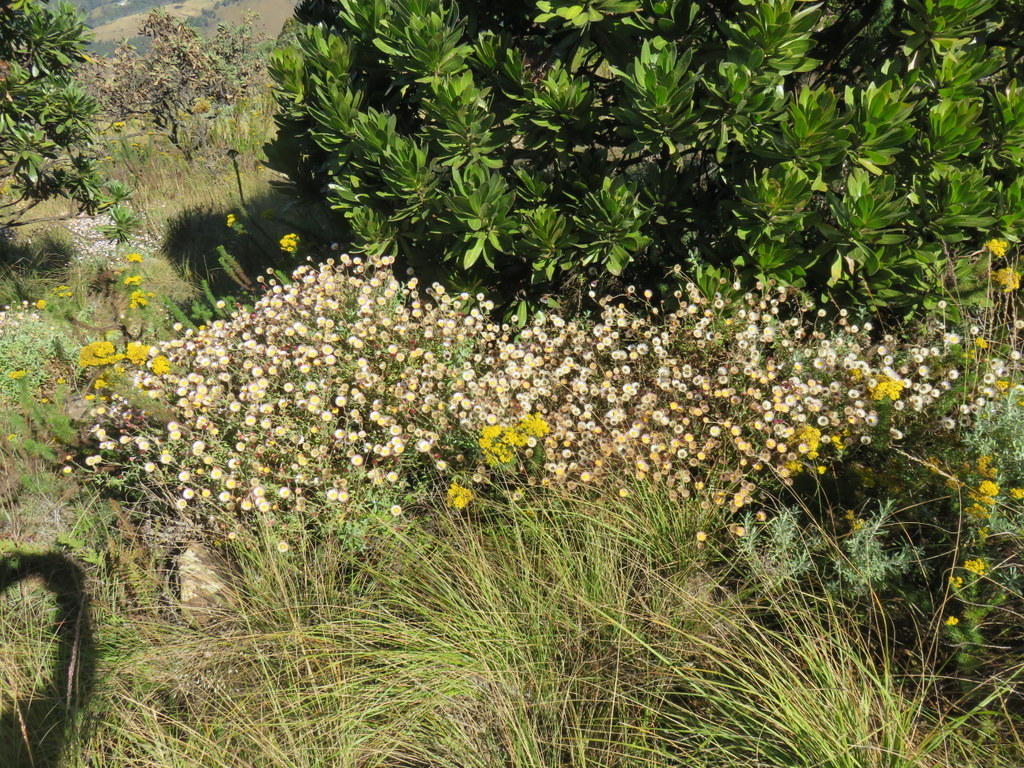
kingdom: Plantae
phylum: Tracheophyta
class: Magnoliopsida
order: Asterales
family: Asteraceae
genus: Helichrysum
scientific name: Helichrysum wilmsii
